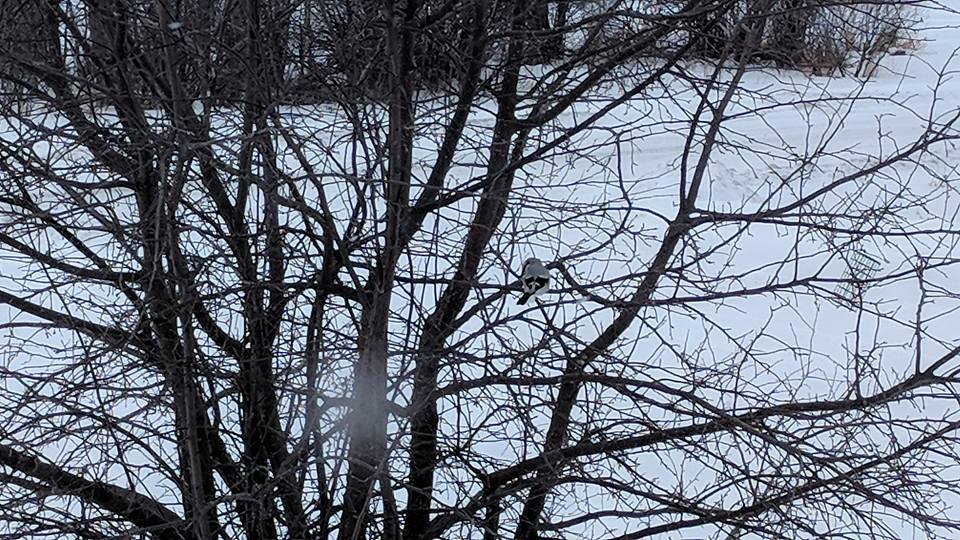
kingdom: Animalia
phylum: Chordata
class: Aves
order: Passeriformes
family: Laniidae
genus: Lanius
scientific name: Lanius borealis
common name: Northern shrike
